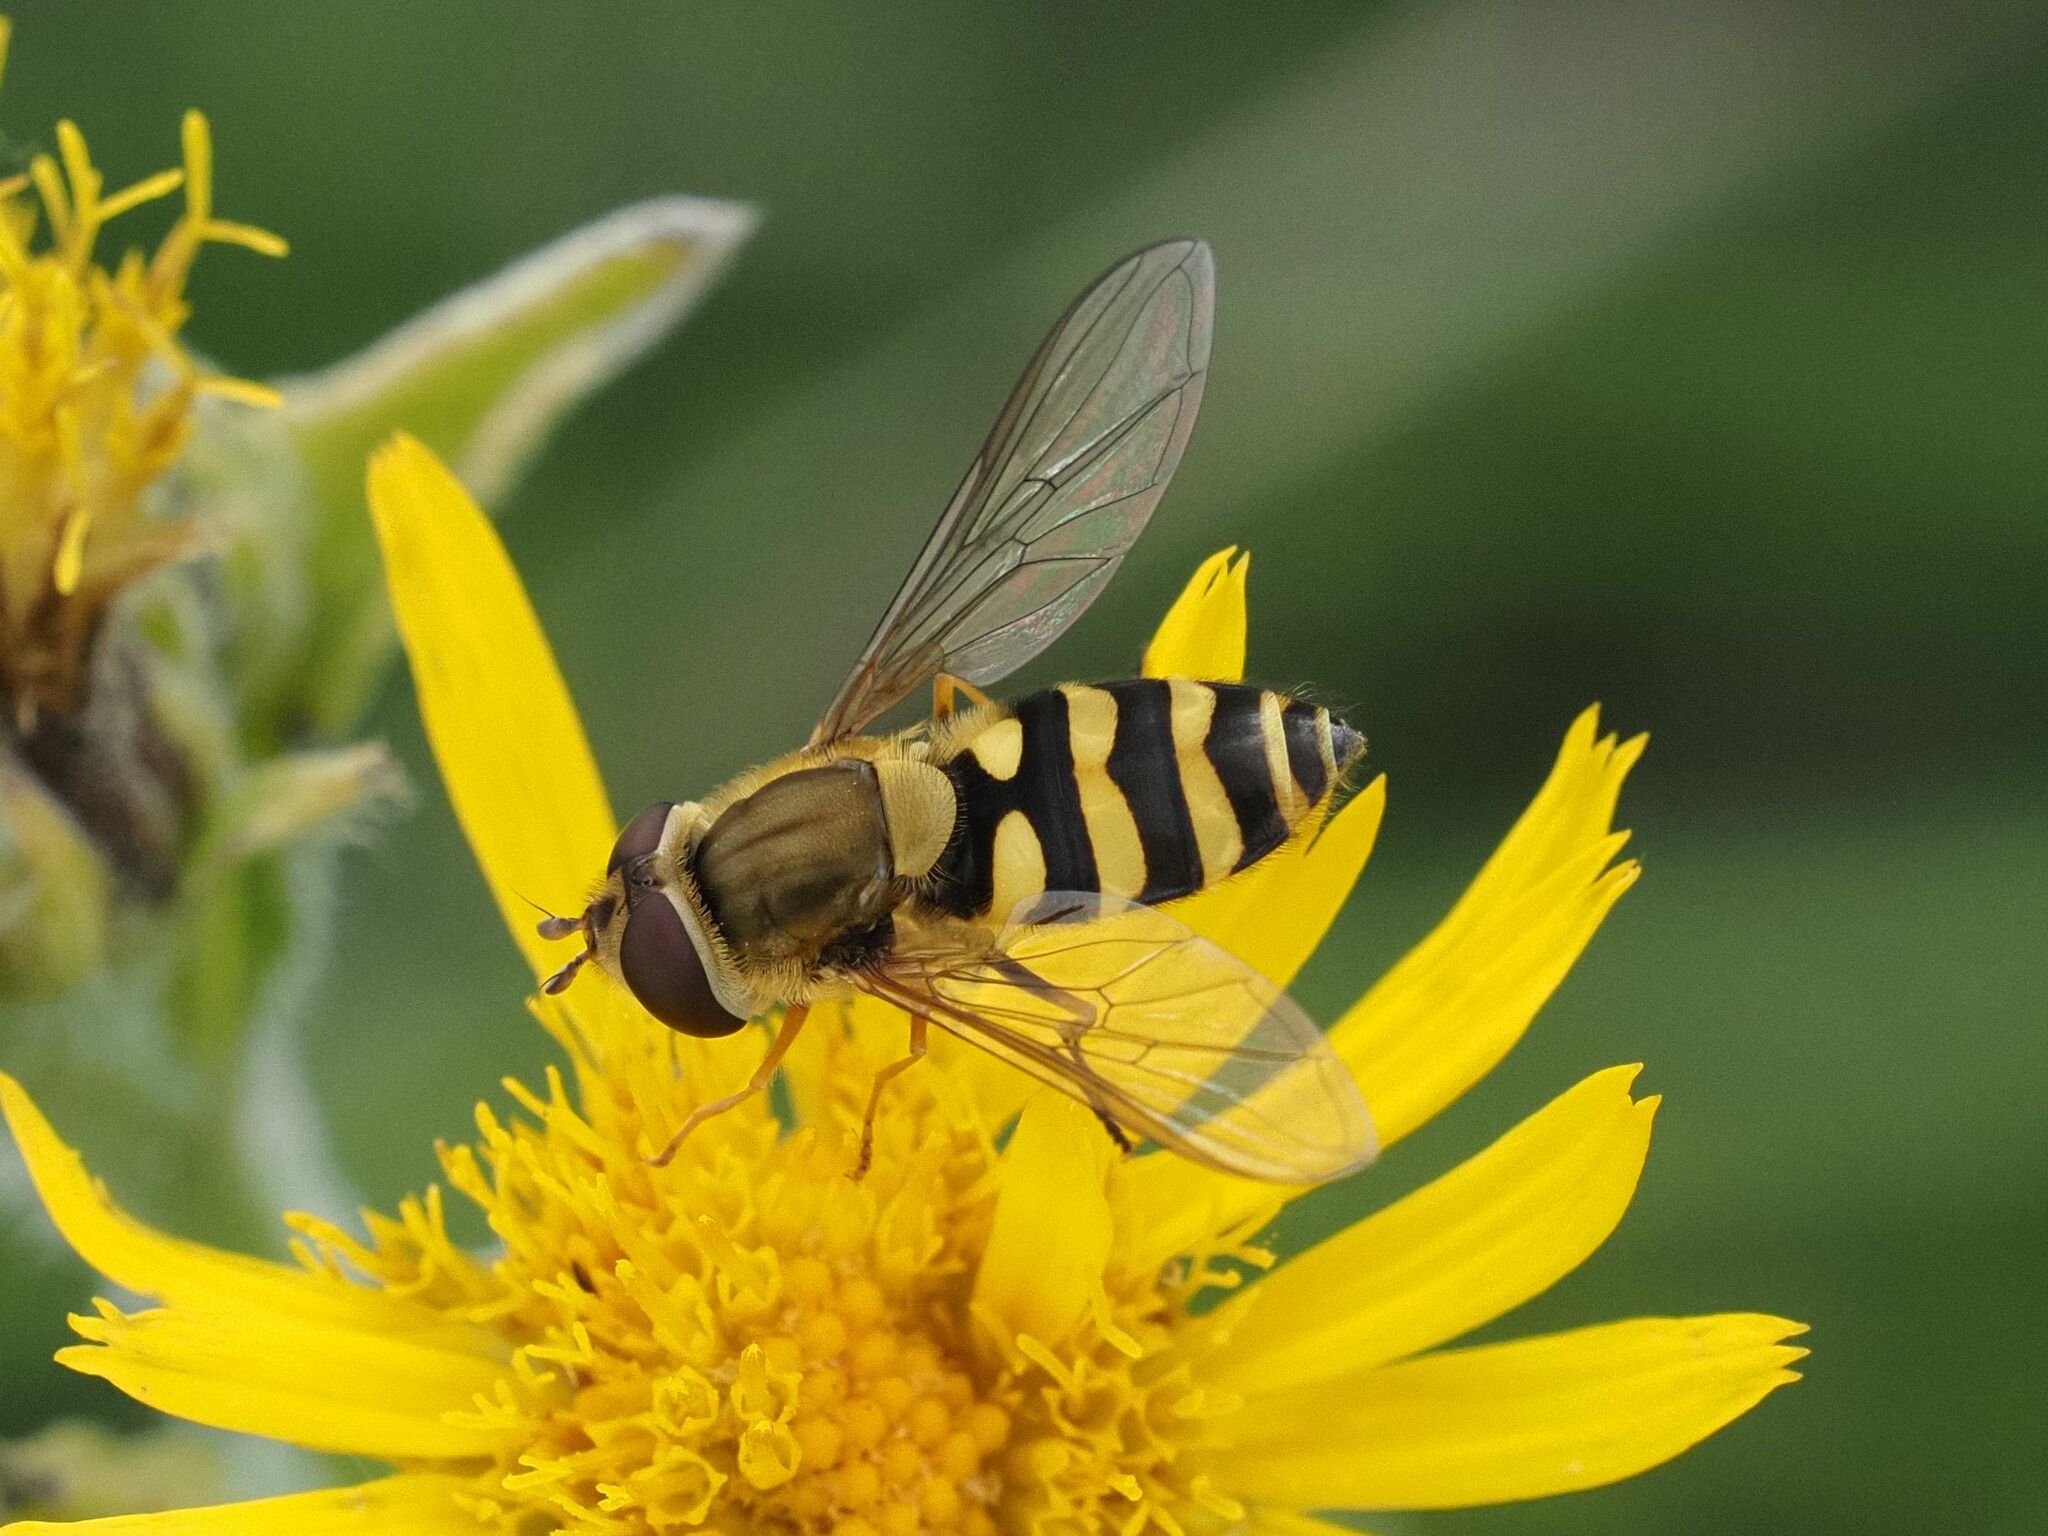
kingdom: Animalia
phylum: Arthropoda
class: Insecta
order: Diptera
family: Syrphidae
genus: Syrphus
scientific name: Syrphus
